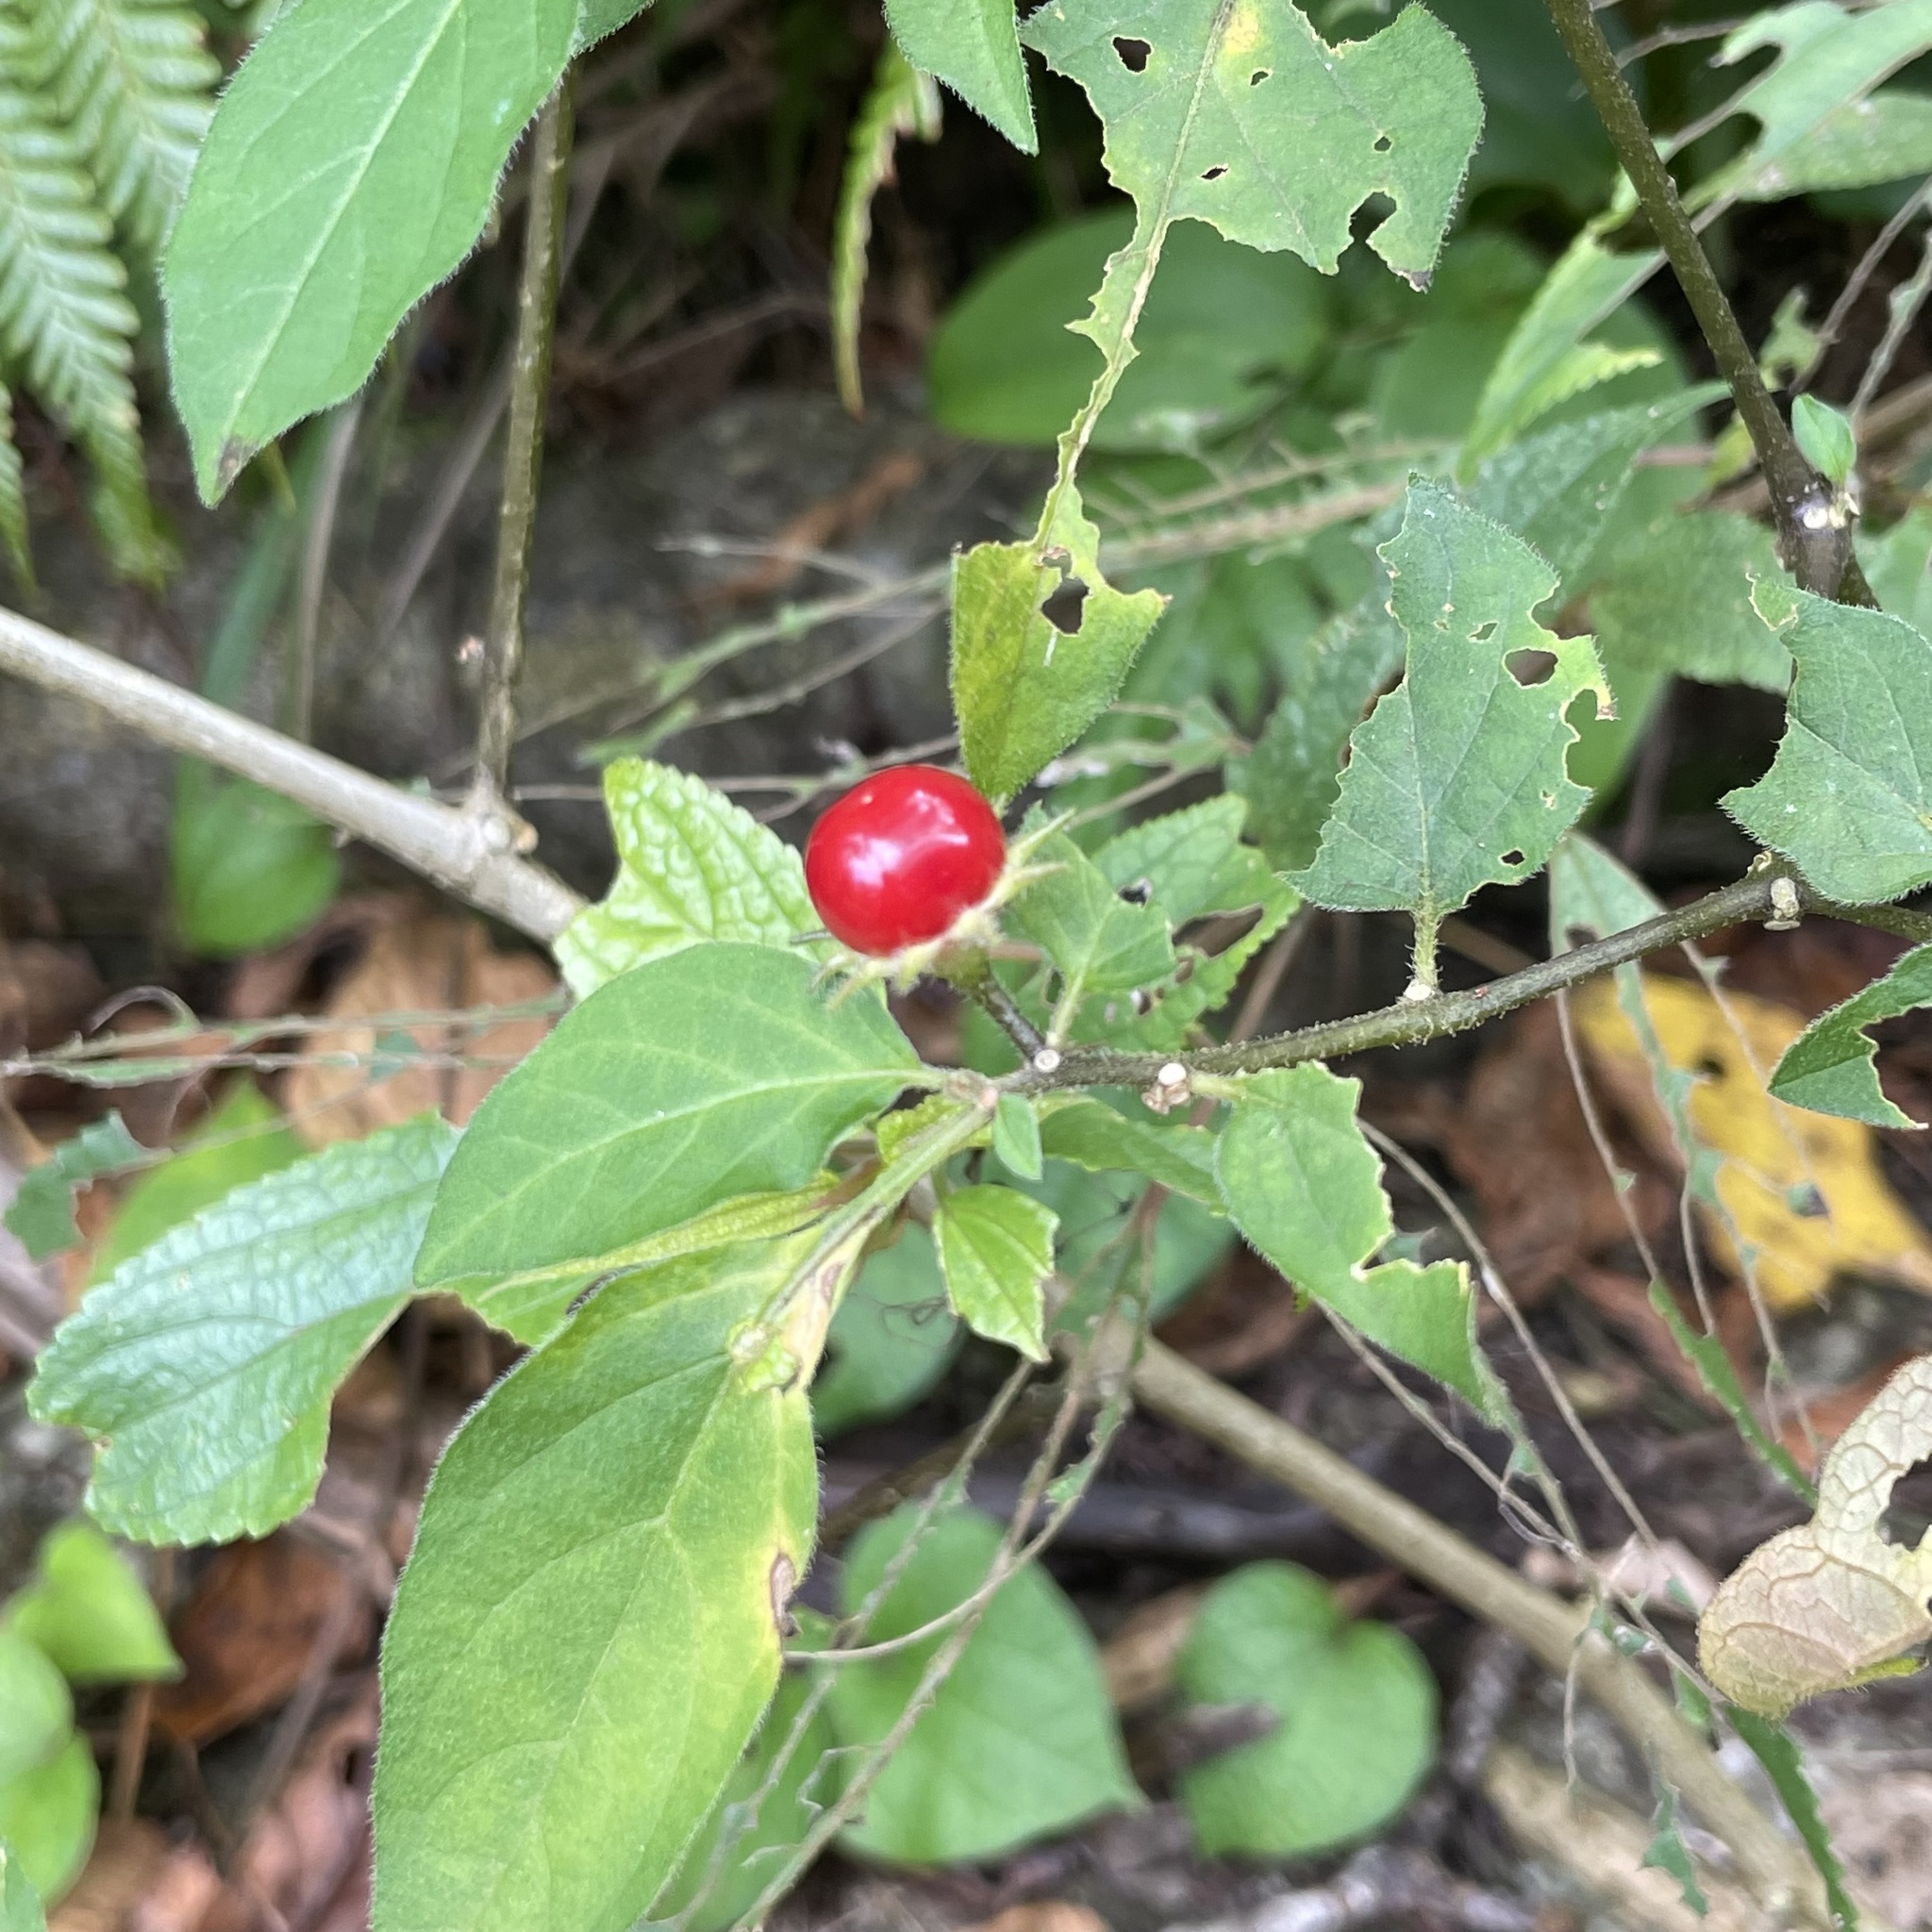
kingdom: Plantae
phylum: Tracheophyta
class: Magnoliopsida
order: Solanales
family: Solanaceae
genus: Lycianthes
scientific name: Lycianthes biflora
